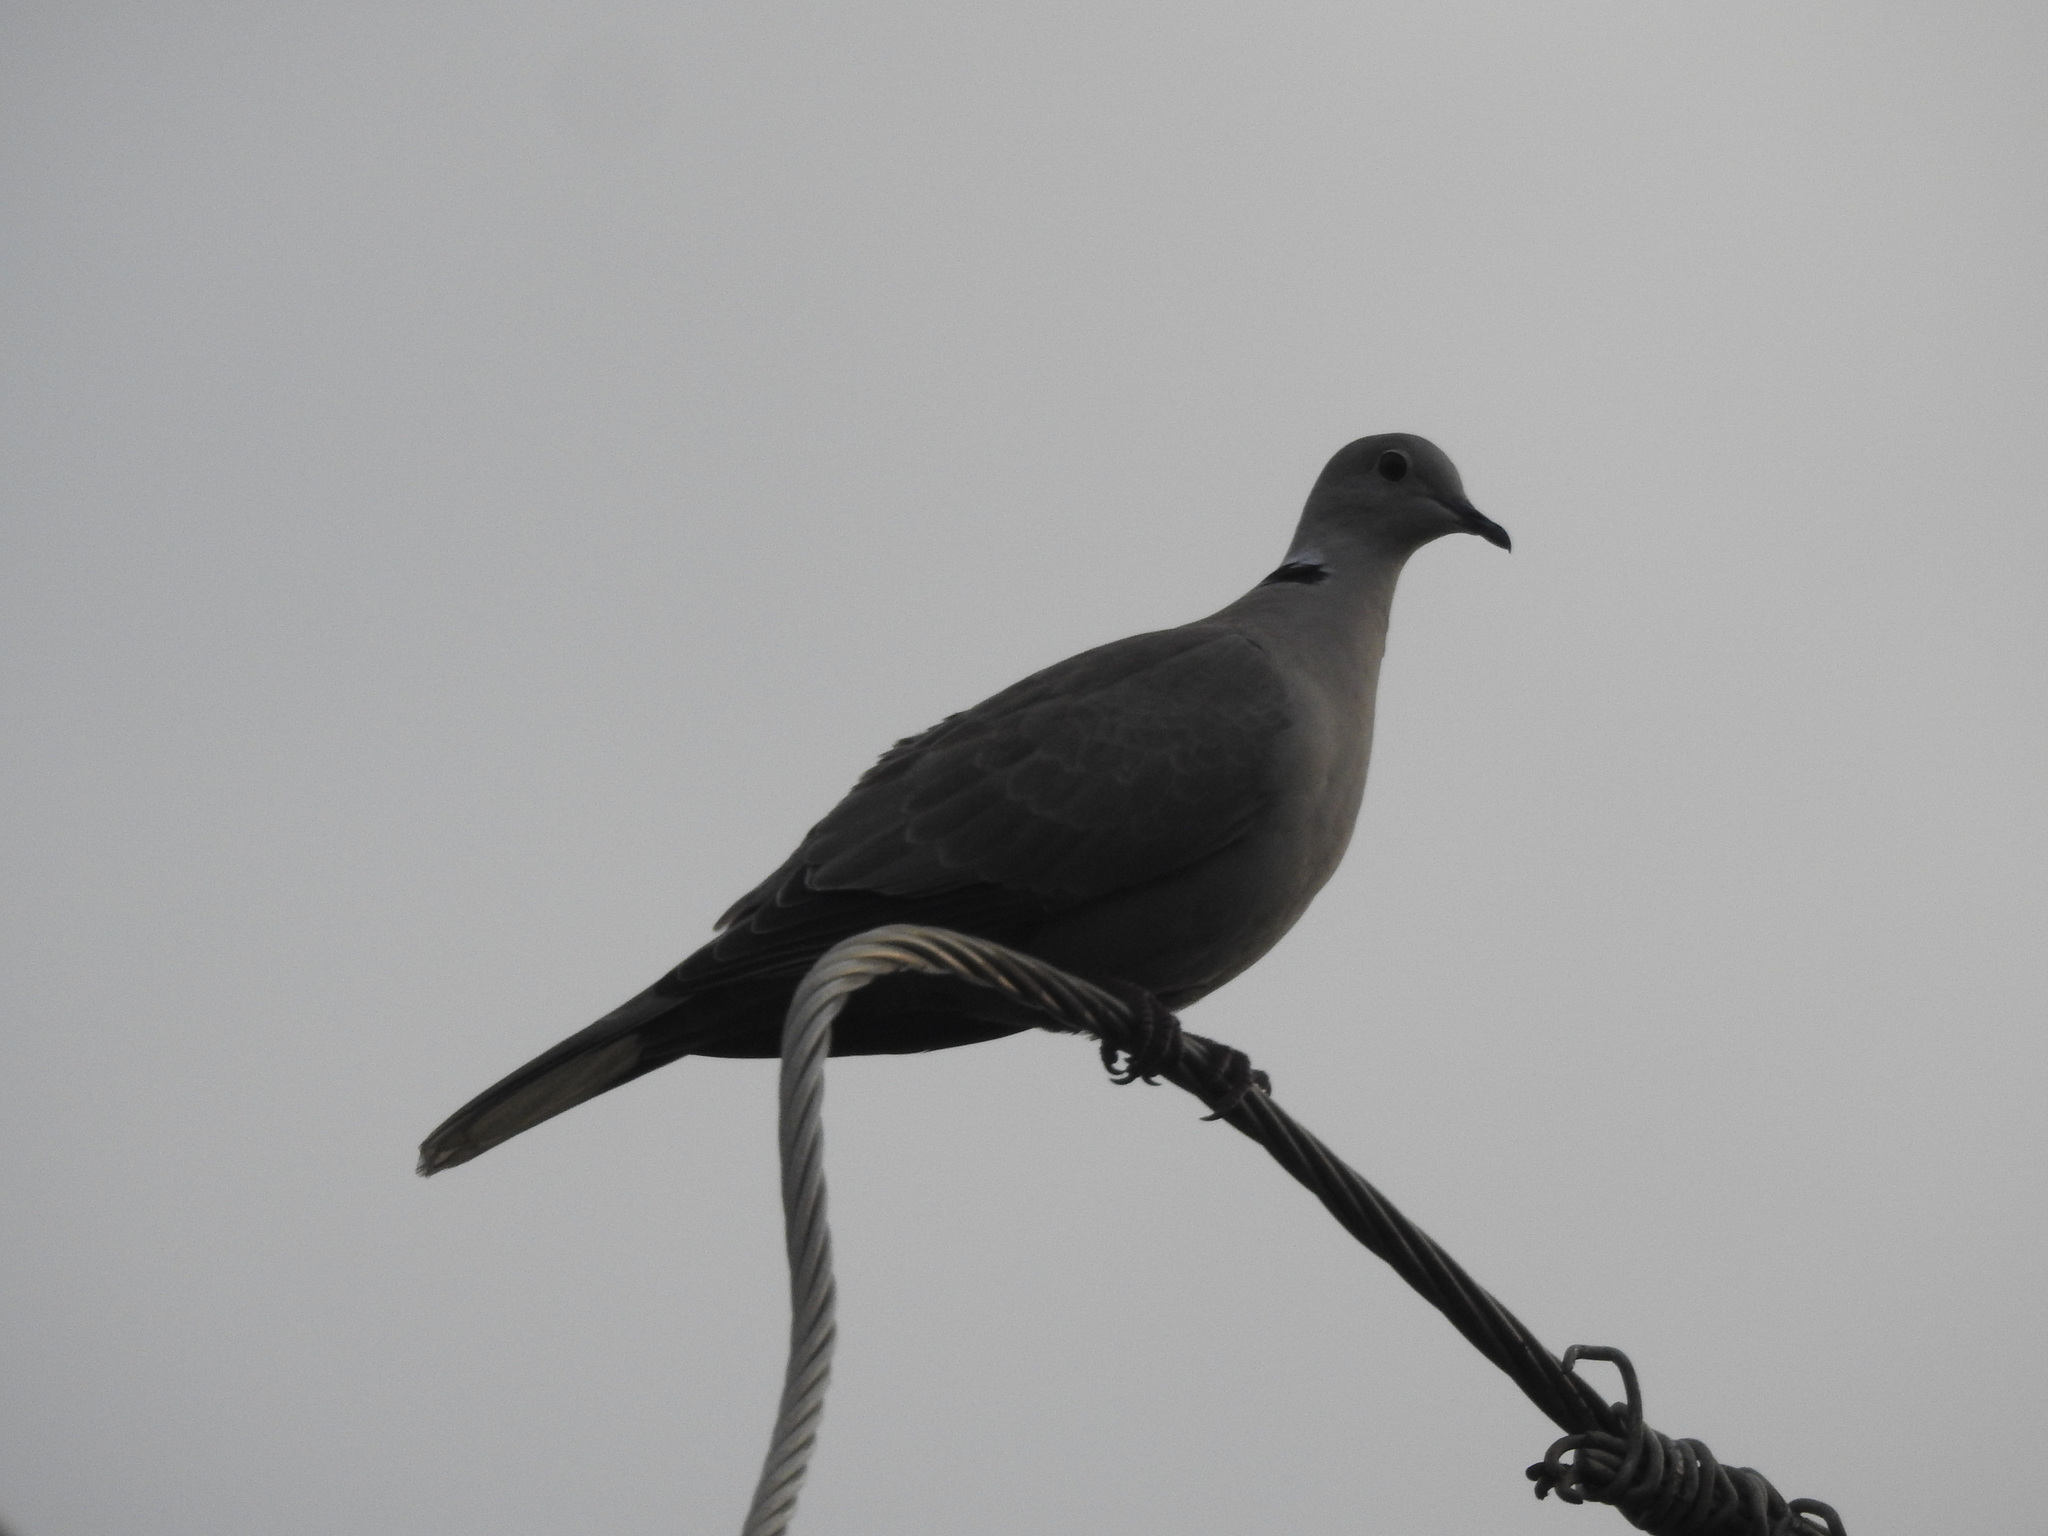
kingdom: Animalia
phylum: Chordata
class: Aves
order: Columbiformes
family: Columbidae
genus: Streptopelia
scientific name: Streptopelia decaocto
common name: Eurasian collared dove
